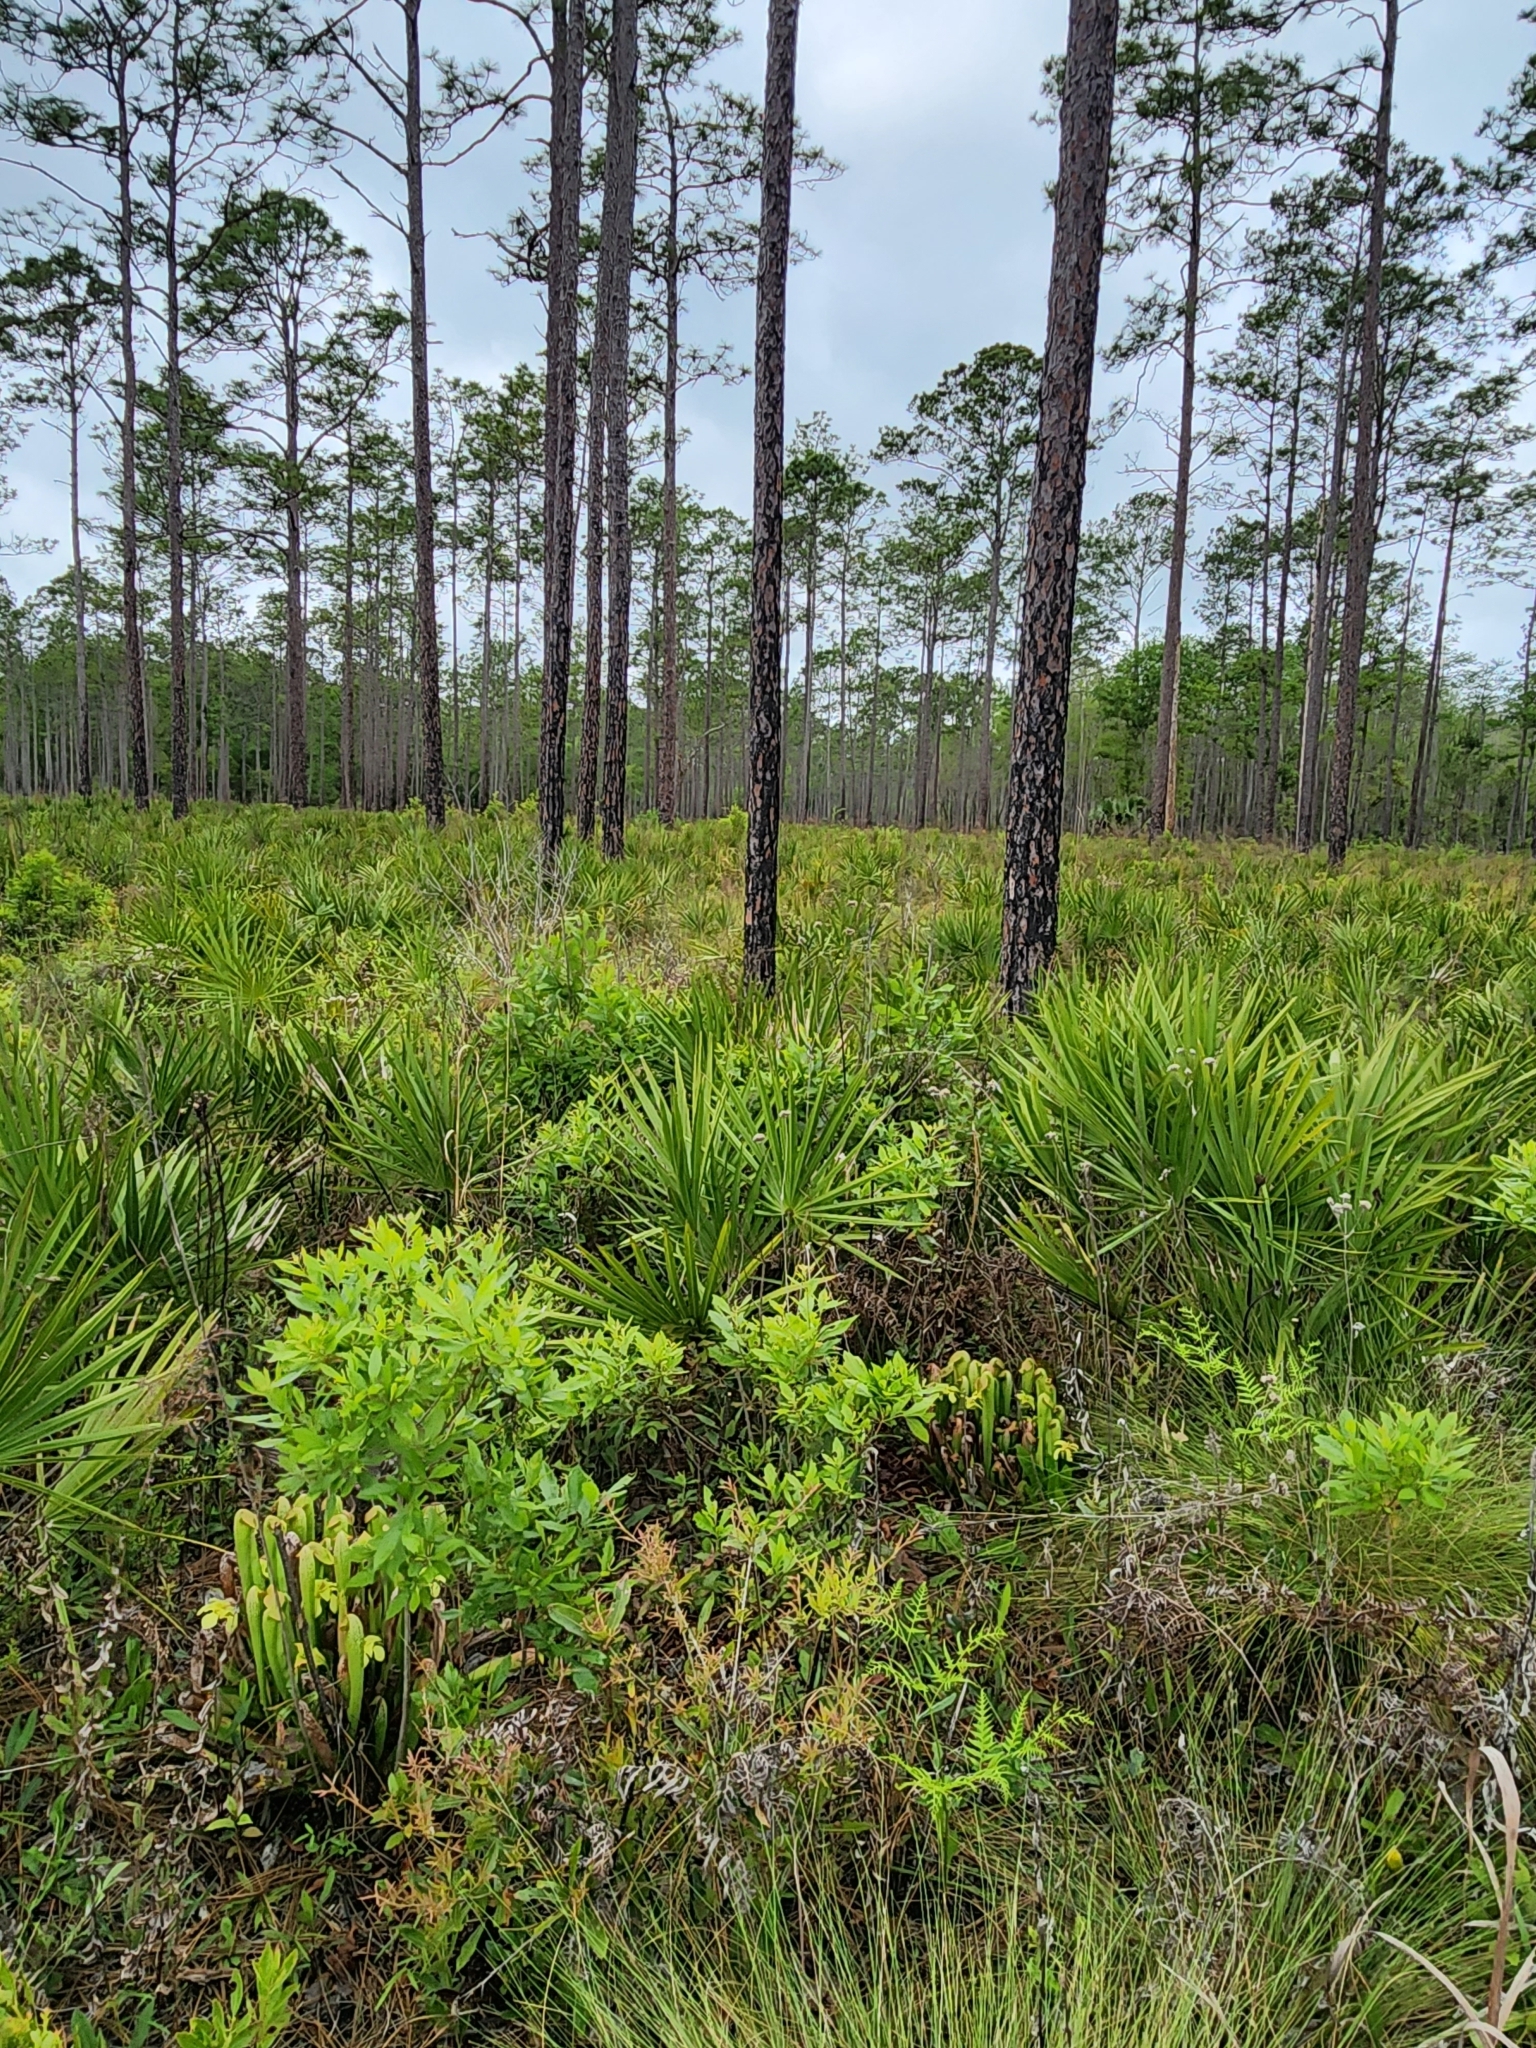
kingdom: Plantae
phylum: Tracheophyta
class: Magnoliopsida
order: Ericales
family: Sarraceniaceae
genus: Sarracenia
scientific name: Sarracenia minor
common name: Rainhat-trumpet
